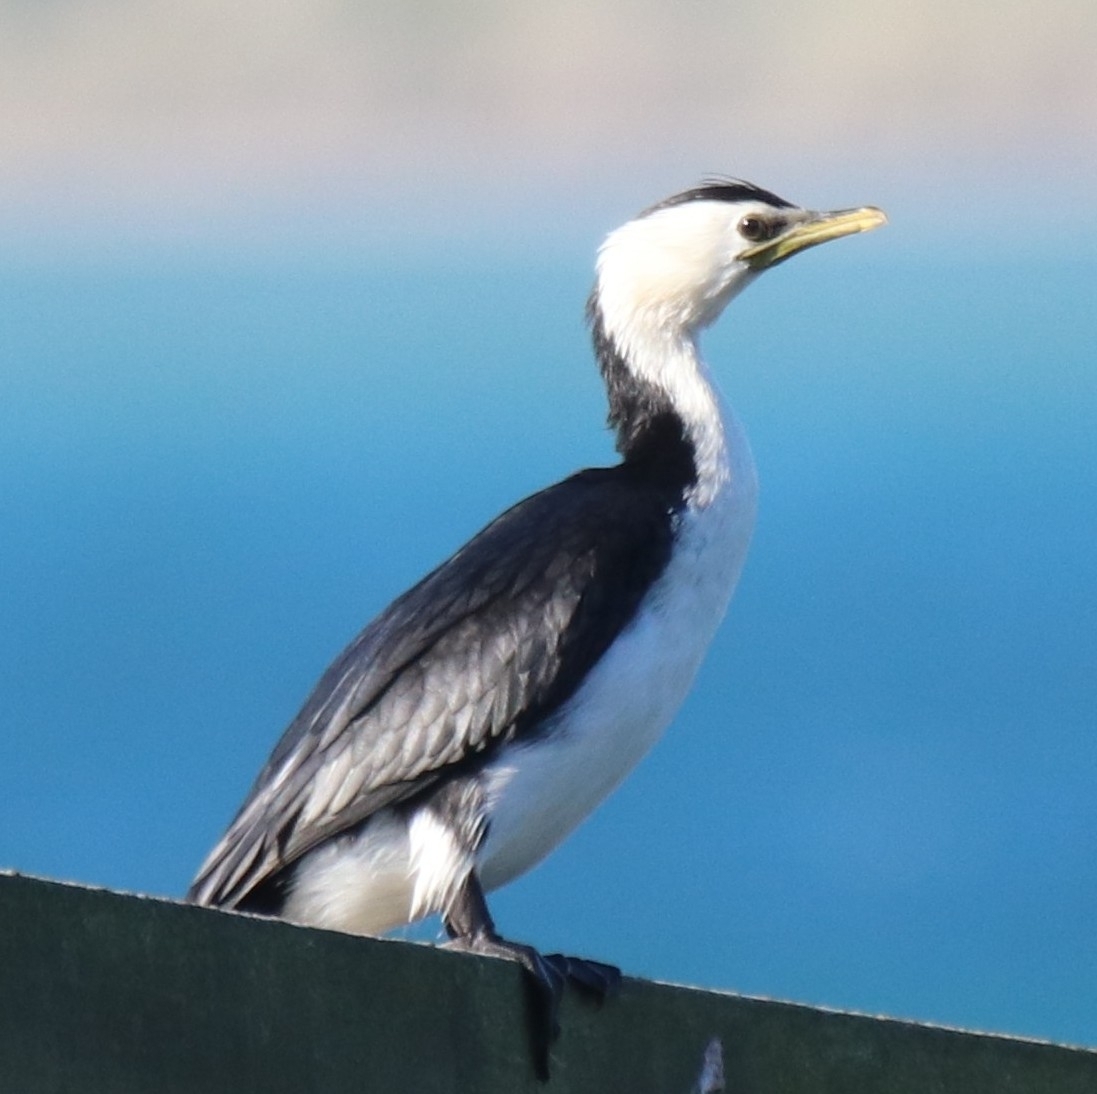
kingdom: Animalia
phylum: Chordata
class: Aves
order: Suliformes
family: Phalacrocoracidae
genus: Microcarbo
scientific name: Microcarbo melanoleucos
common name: Little pied cormorant
